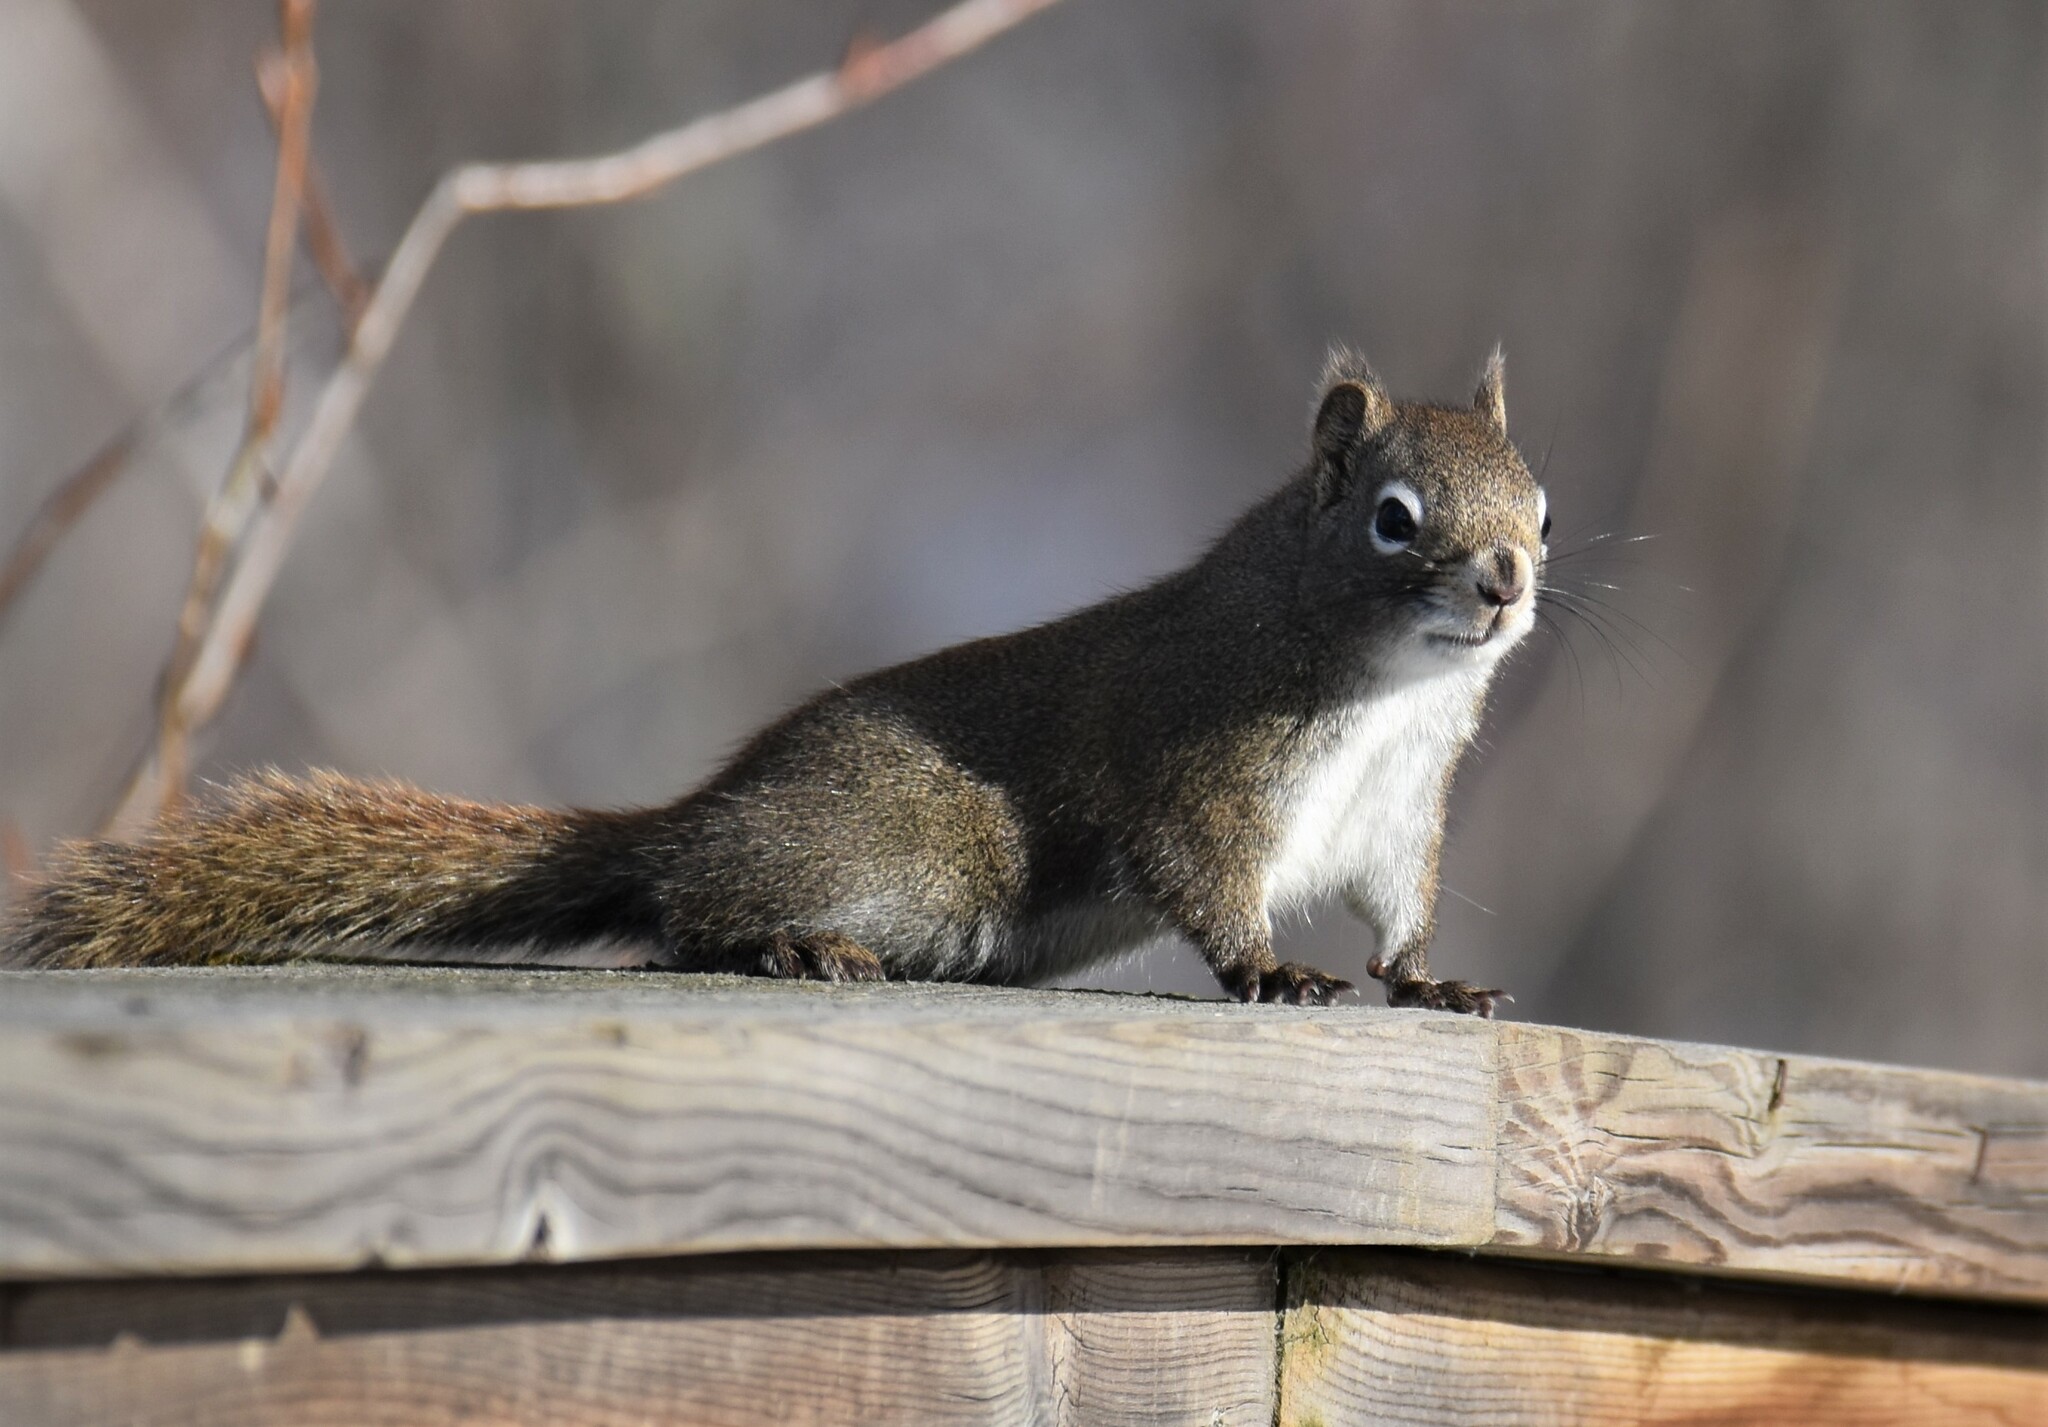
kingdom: Animalia
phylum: Chordata
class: Mammalia
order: Rodentia
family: Sciuridae
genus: Tamiasciurus
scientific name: Tamiasciurus hudsonicus
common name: Red squirrel
